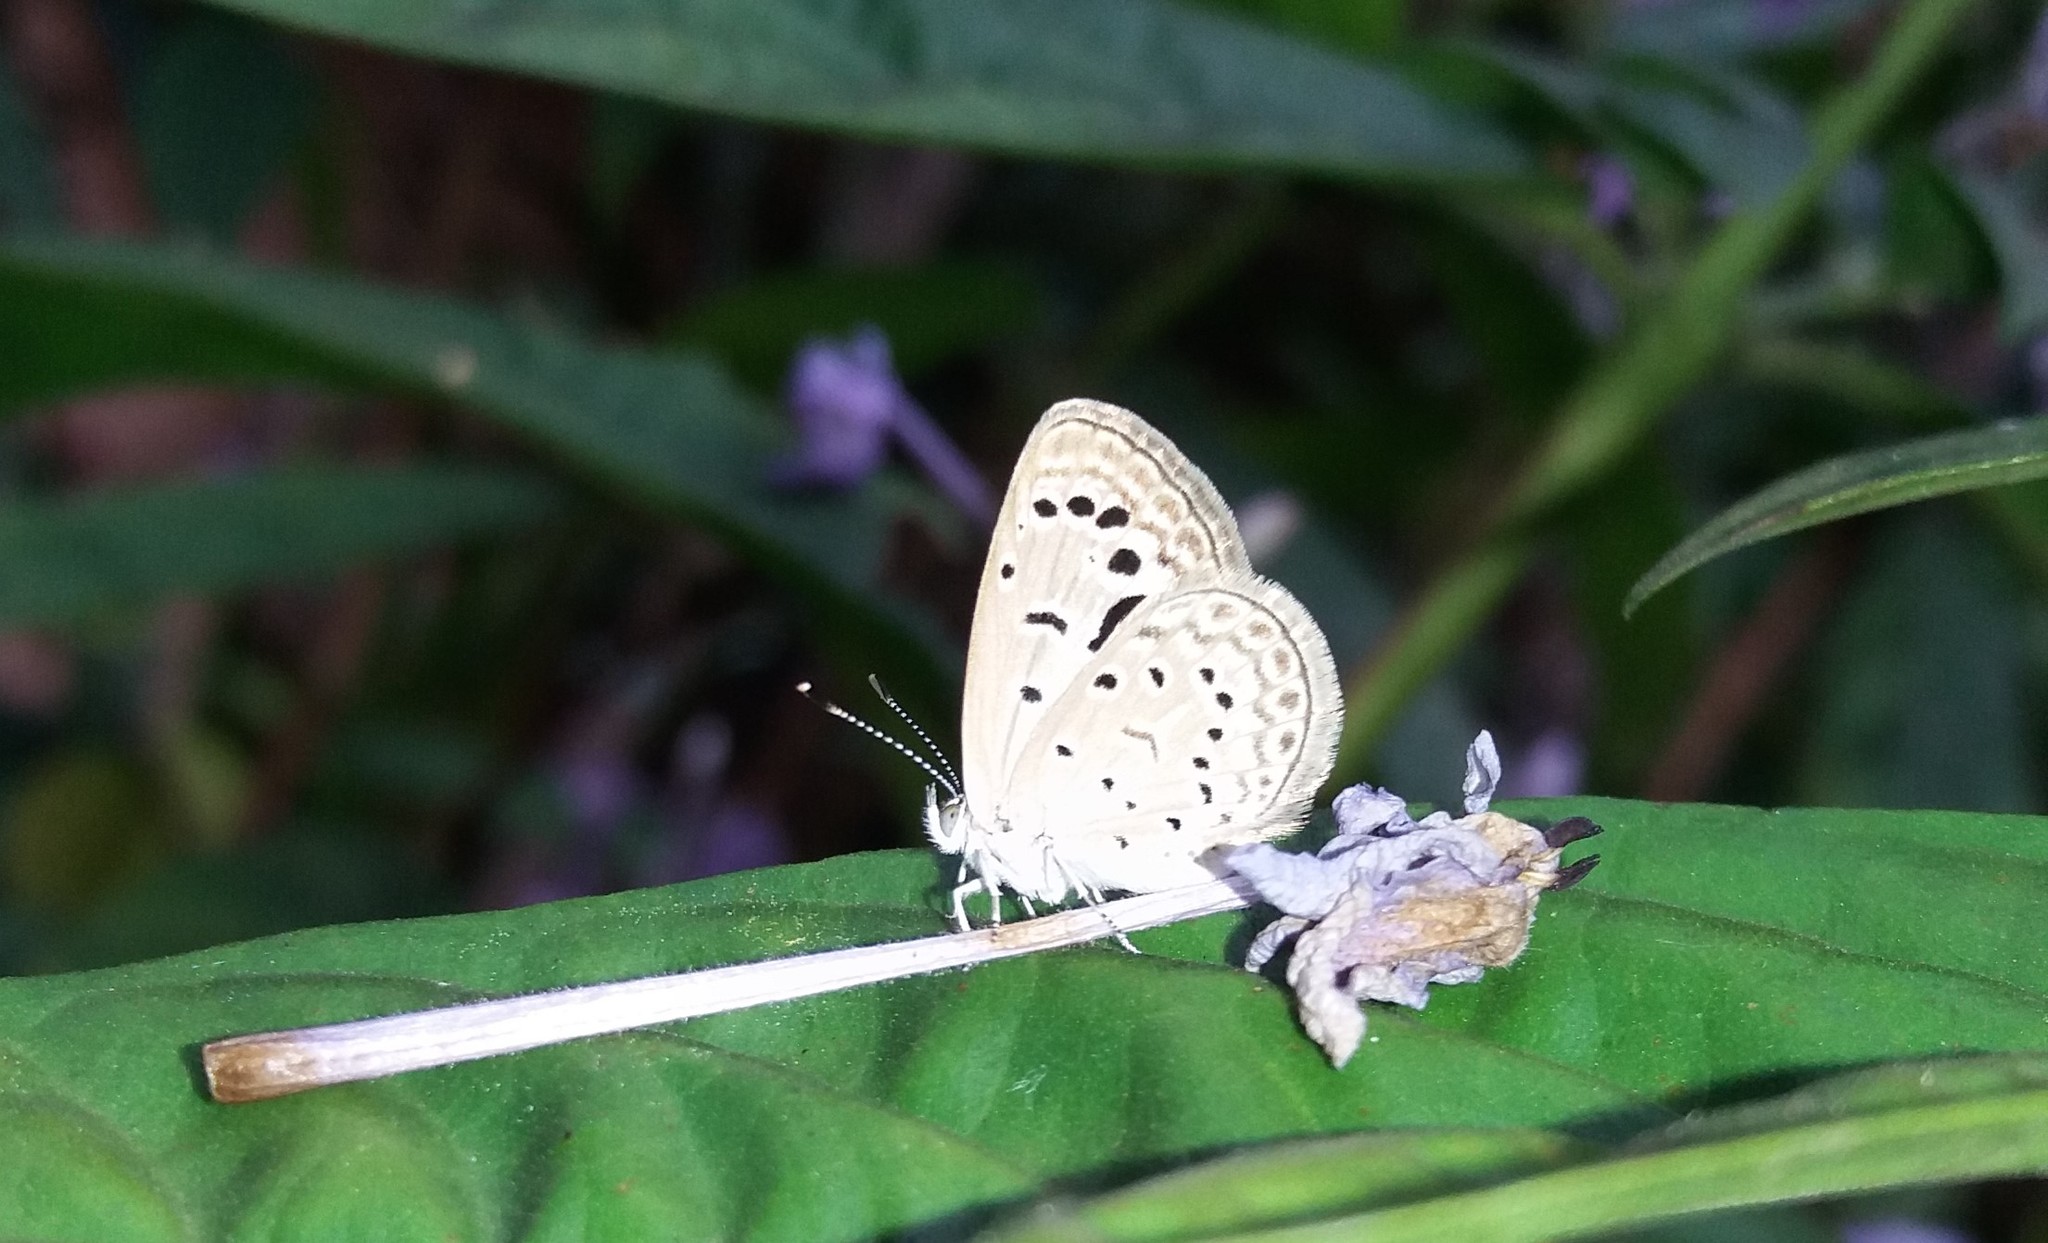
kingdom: Animalia
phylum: Arthropoda
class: Insecta
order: Lepidoptera
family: Lycaenidae
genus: Zizeeria
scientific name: Zizeeria karsandra
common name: Dark grass blue
